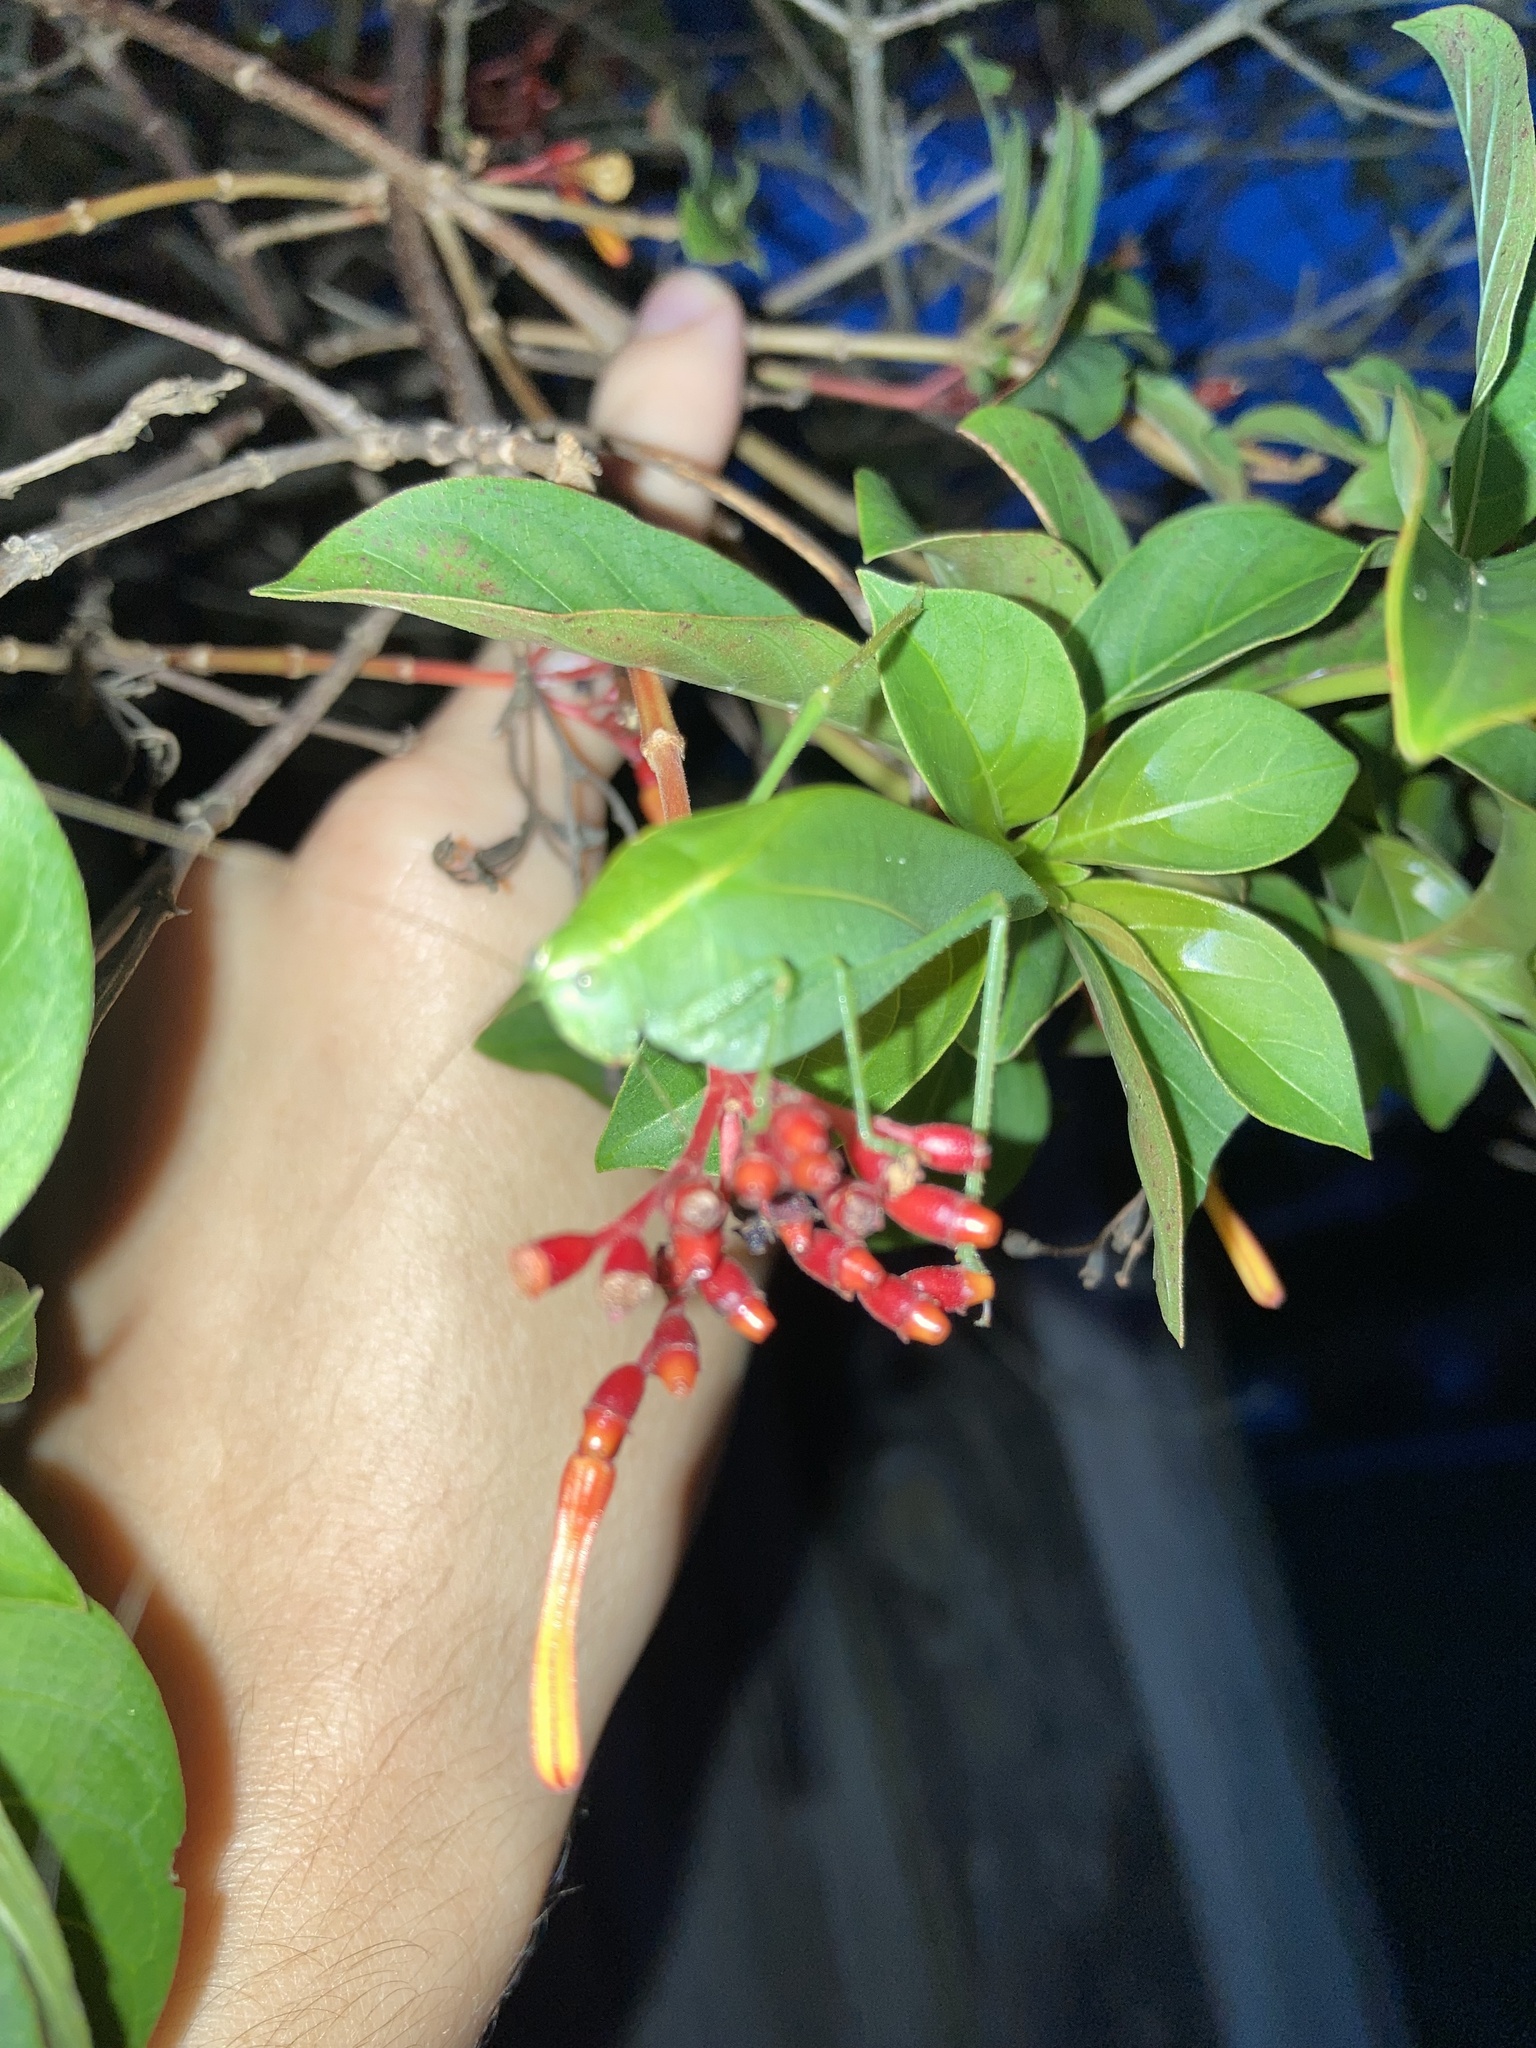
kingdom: Animalia
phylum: Arthropoda
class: Insecta
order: Orthoptera
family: Tettigoniidae
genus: Turpilia
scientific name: Turpilia rostrata
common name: Narrow-beaked katydid
